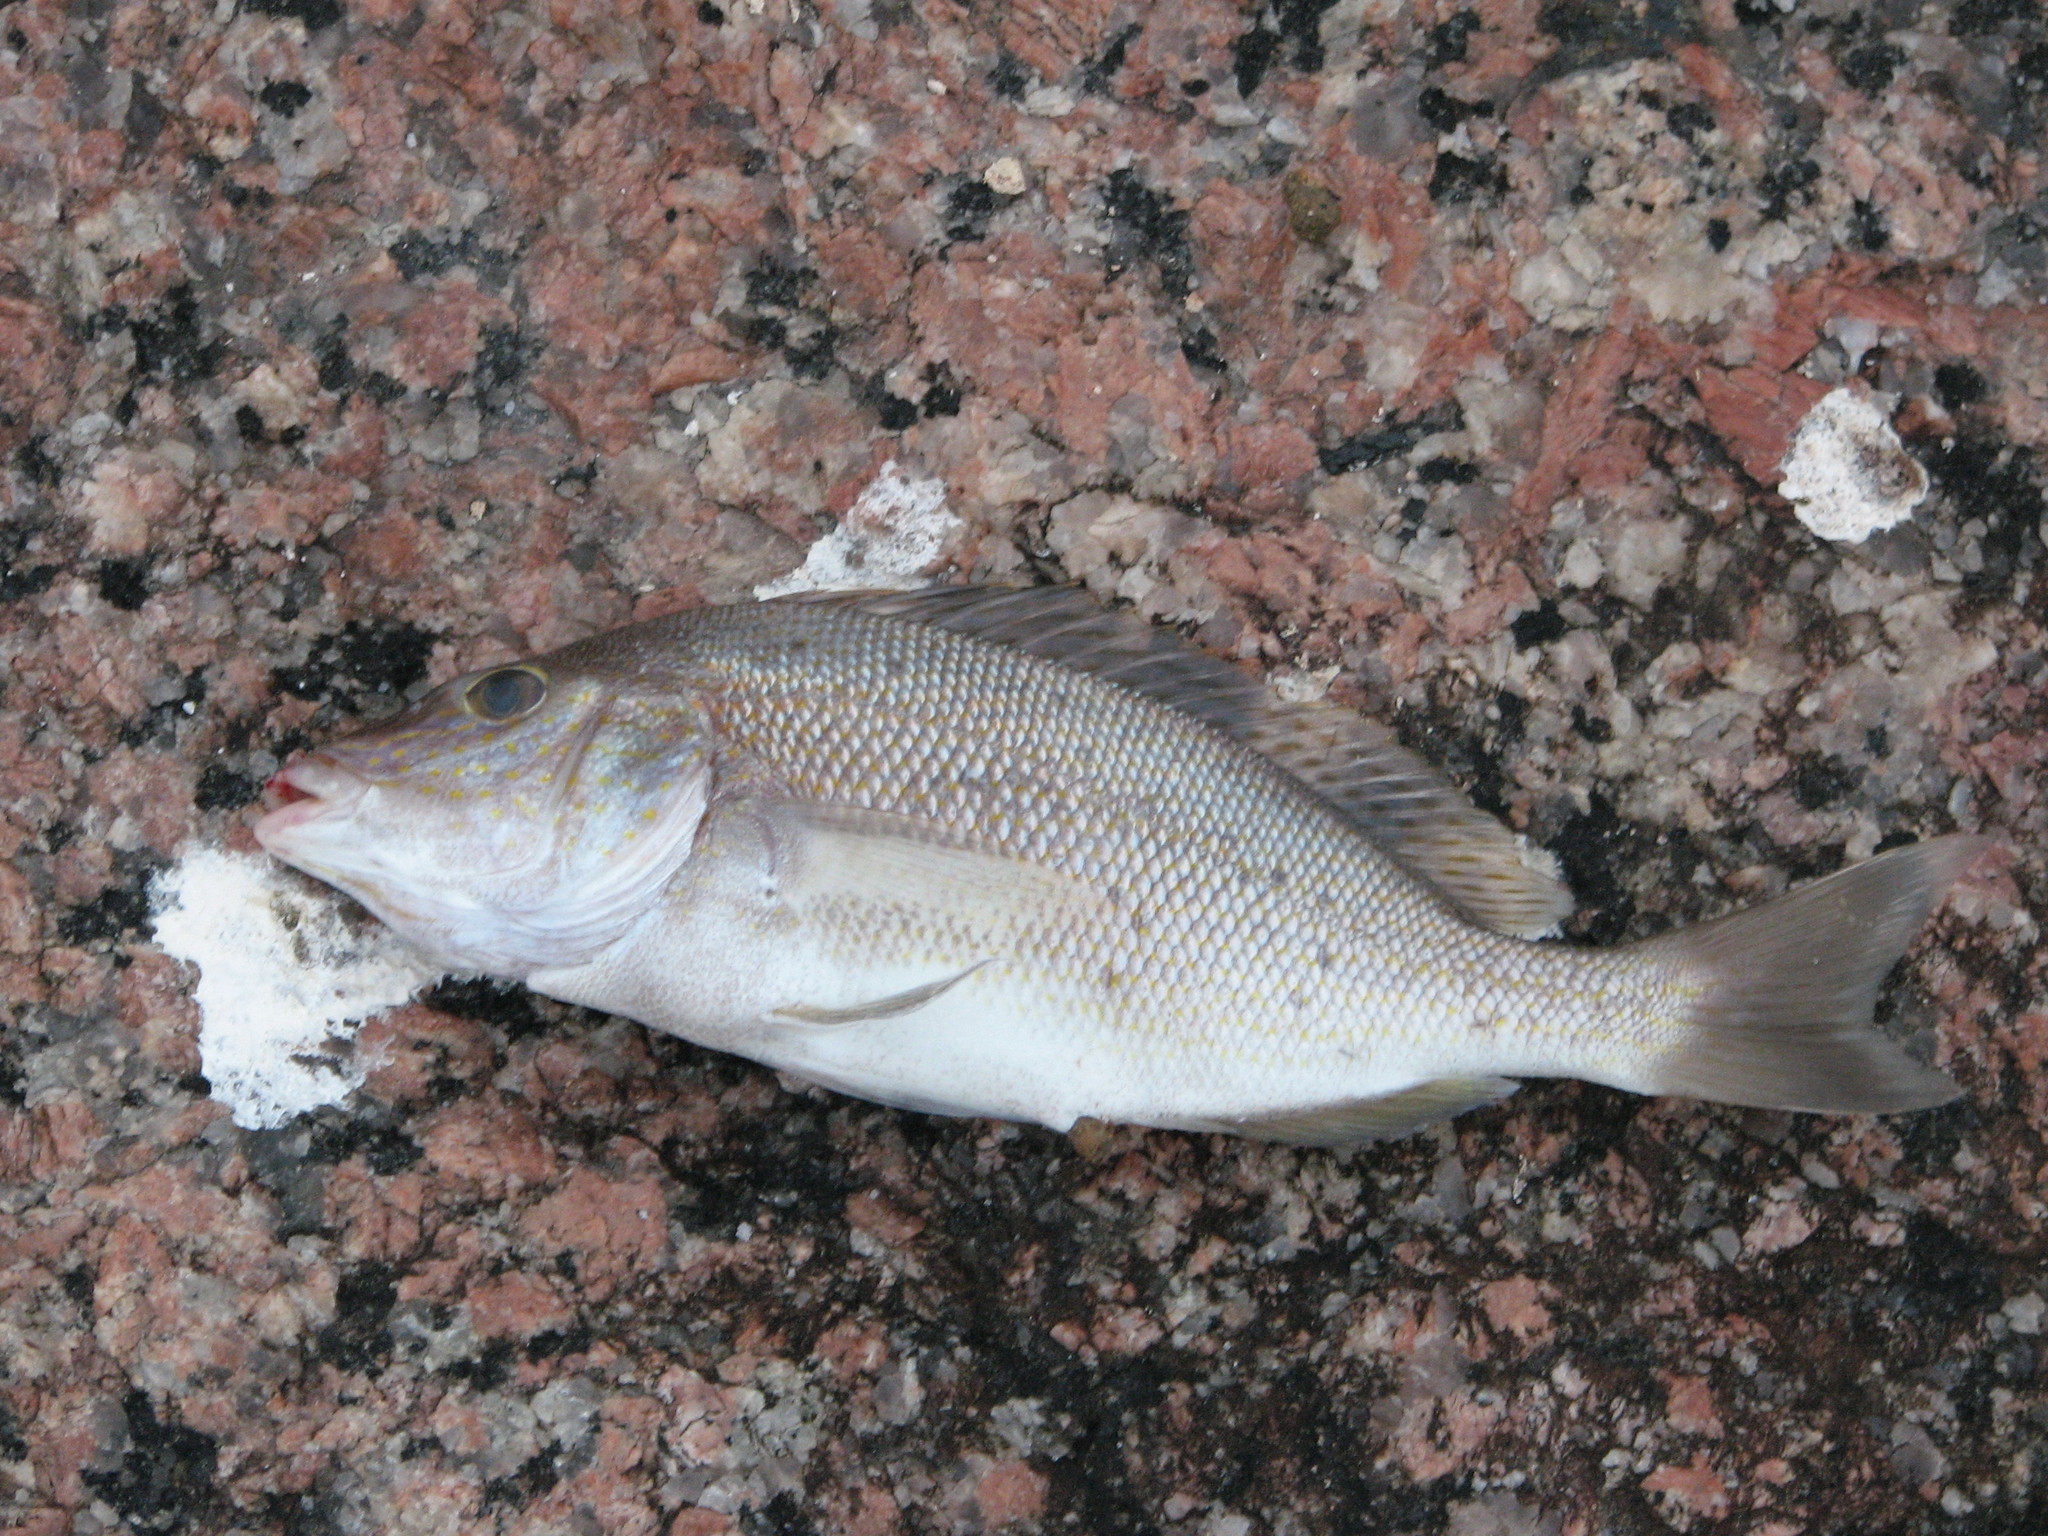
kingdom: Animalia
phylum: Chordata
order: Perciformes
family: Haemulidae
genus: Orthopristis
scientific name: Orthopristis chrysoptera
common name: Pigfish
